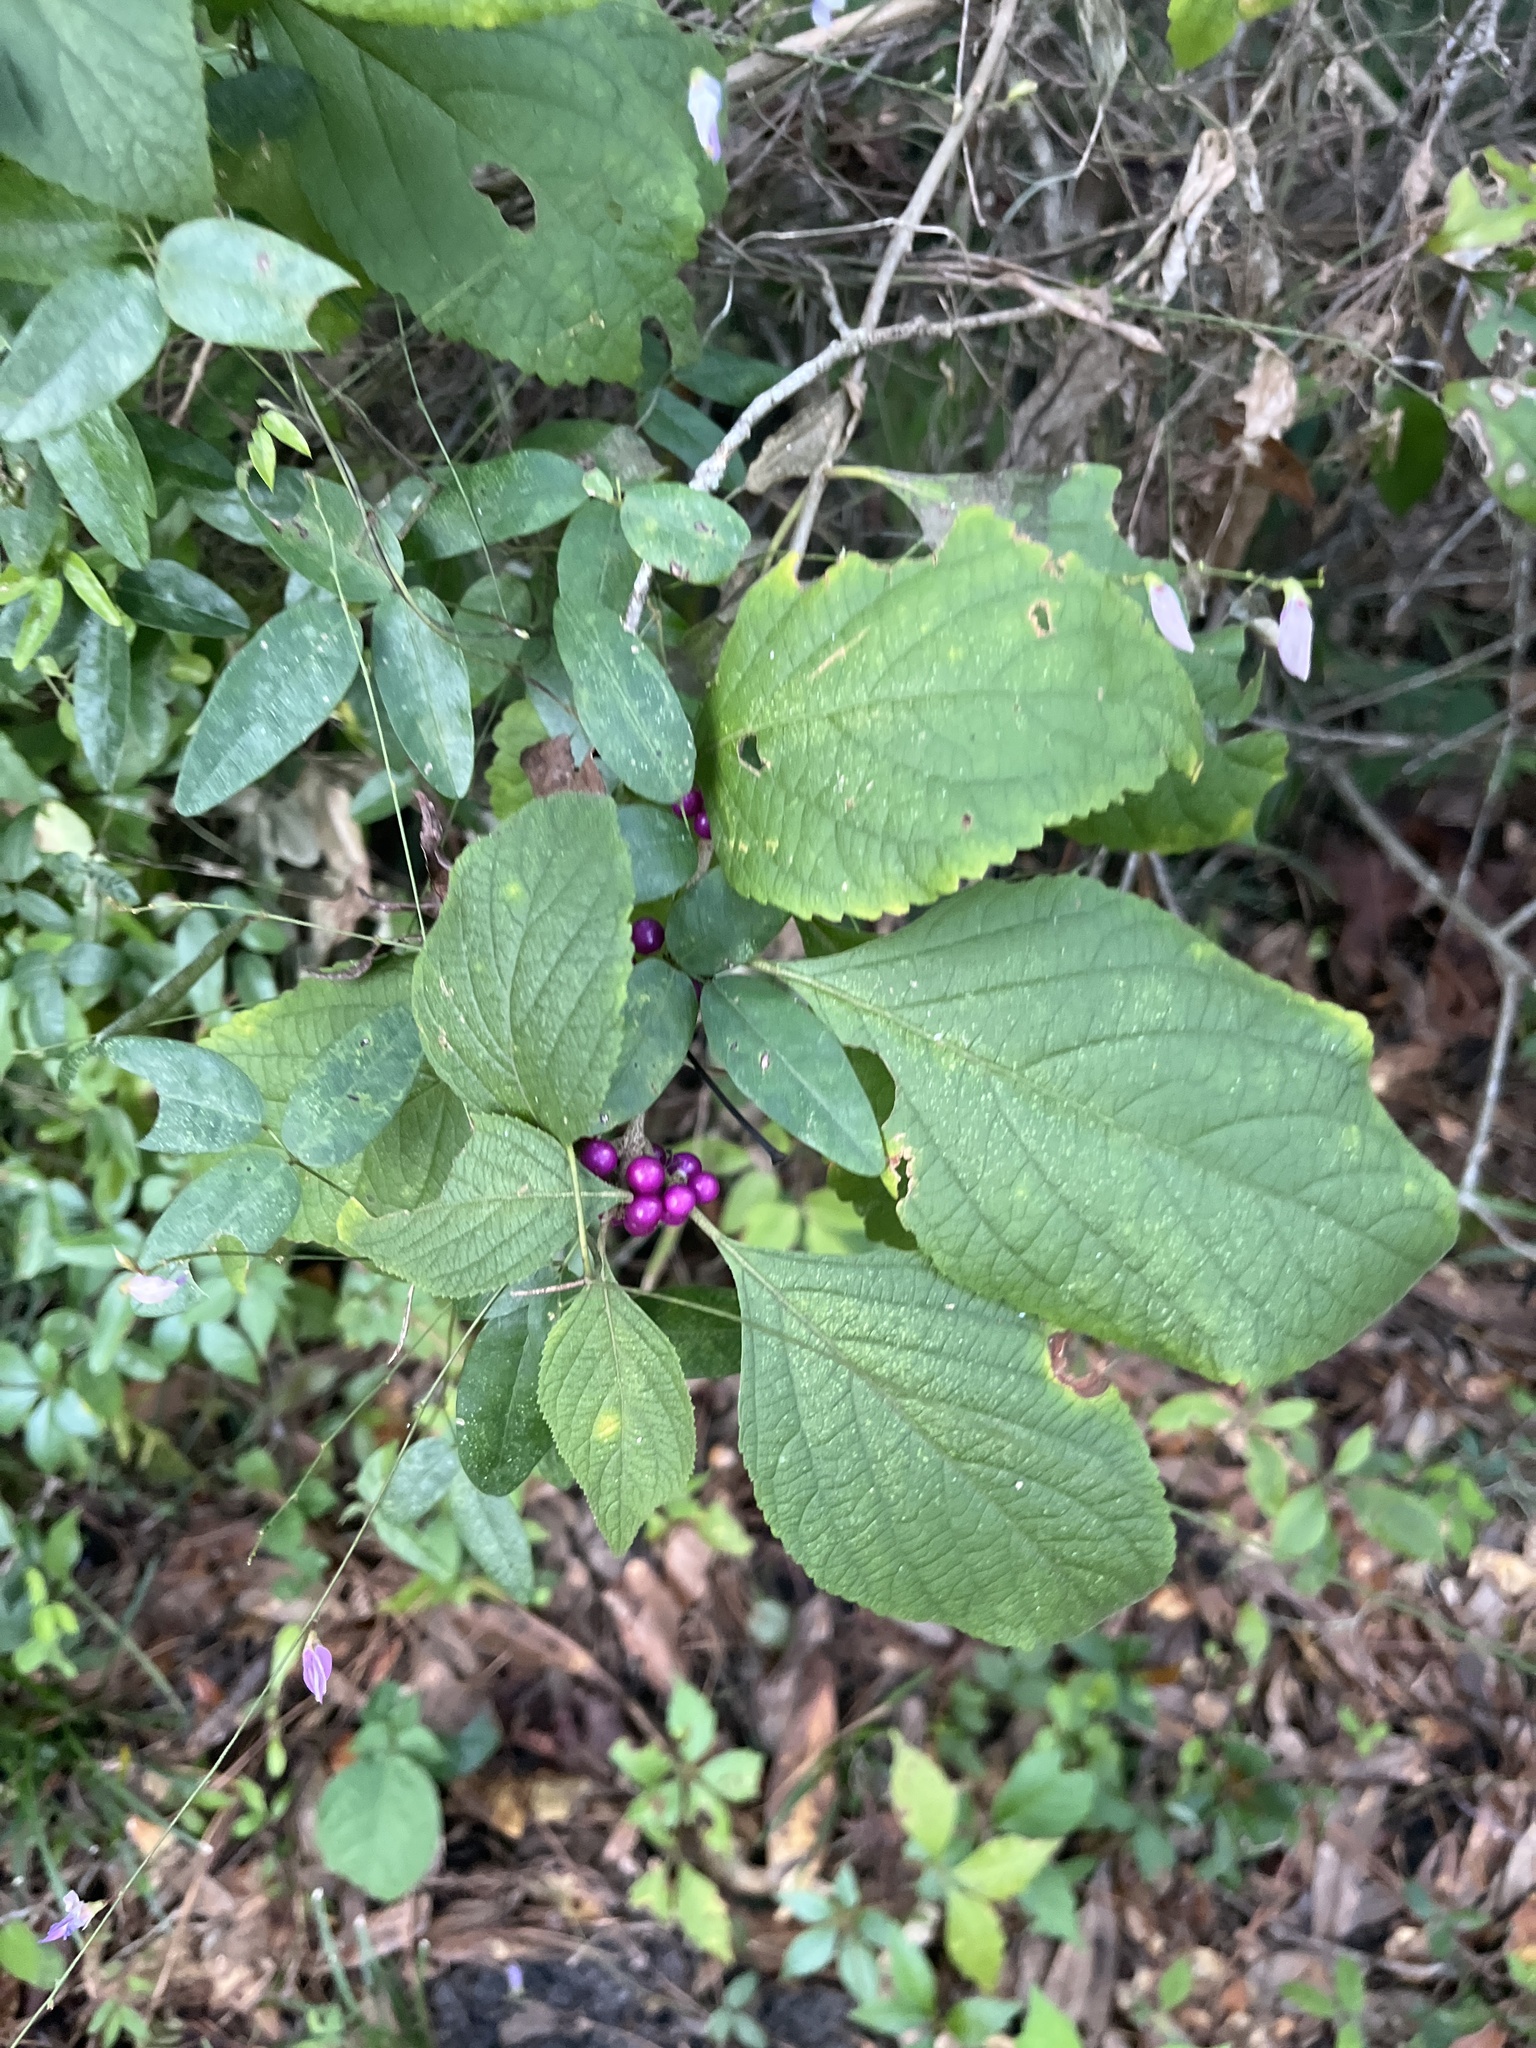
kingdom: Plantae
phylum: Tracheophyta
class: Magnoliopsida
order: Lamiales
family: Lamiaceae
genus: Callicarpa
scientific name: Callicarpa americana
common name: American beautyberry
